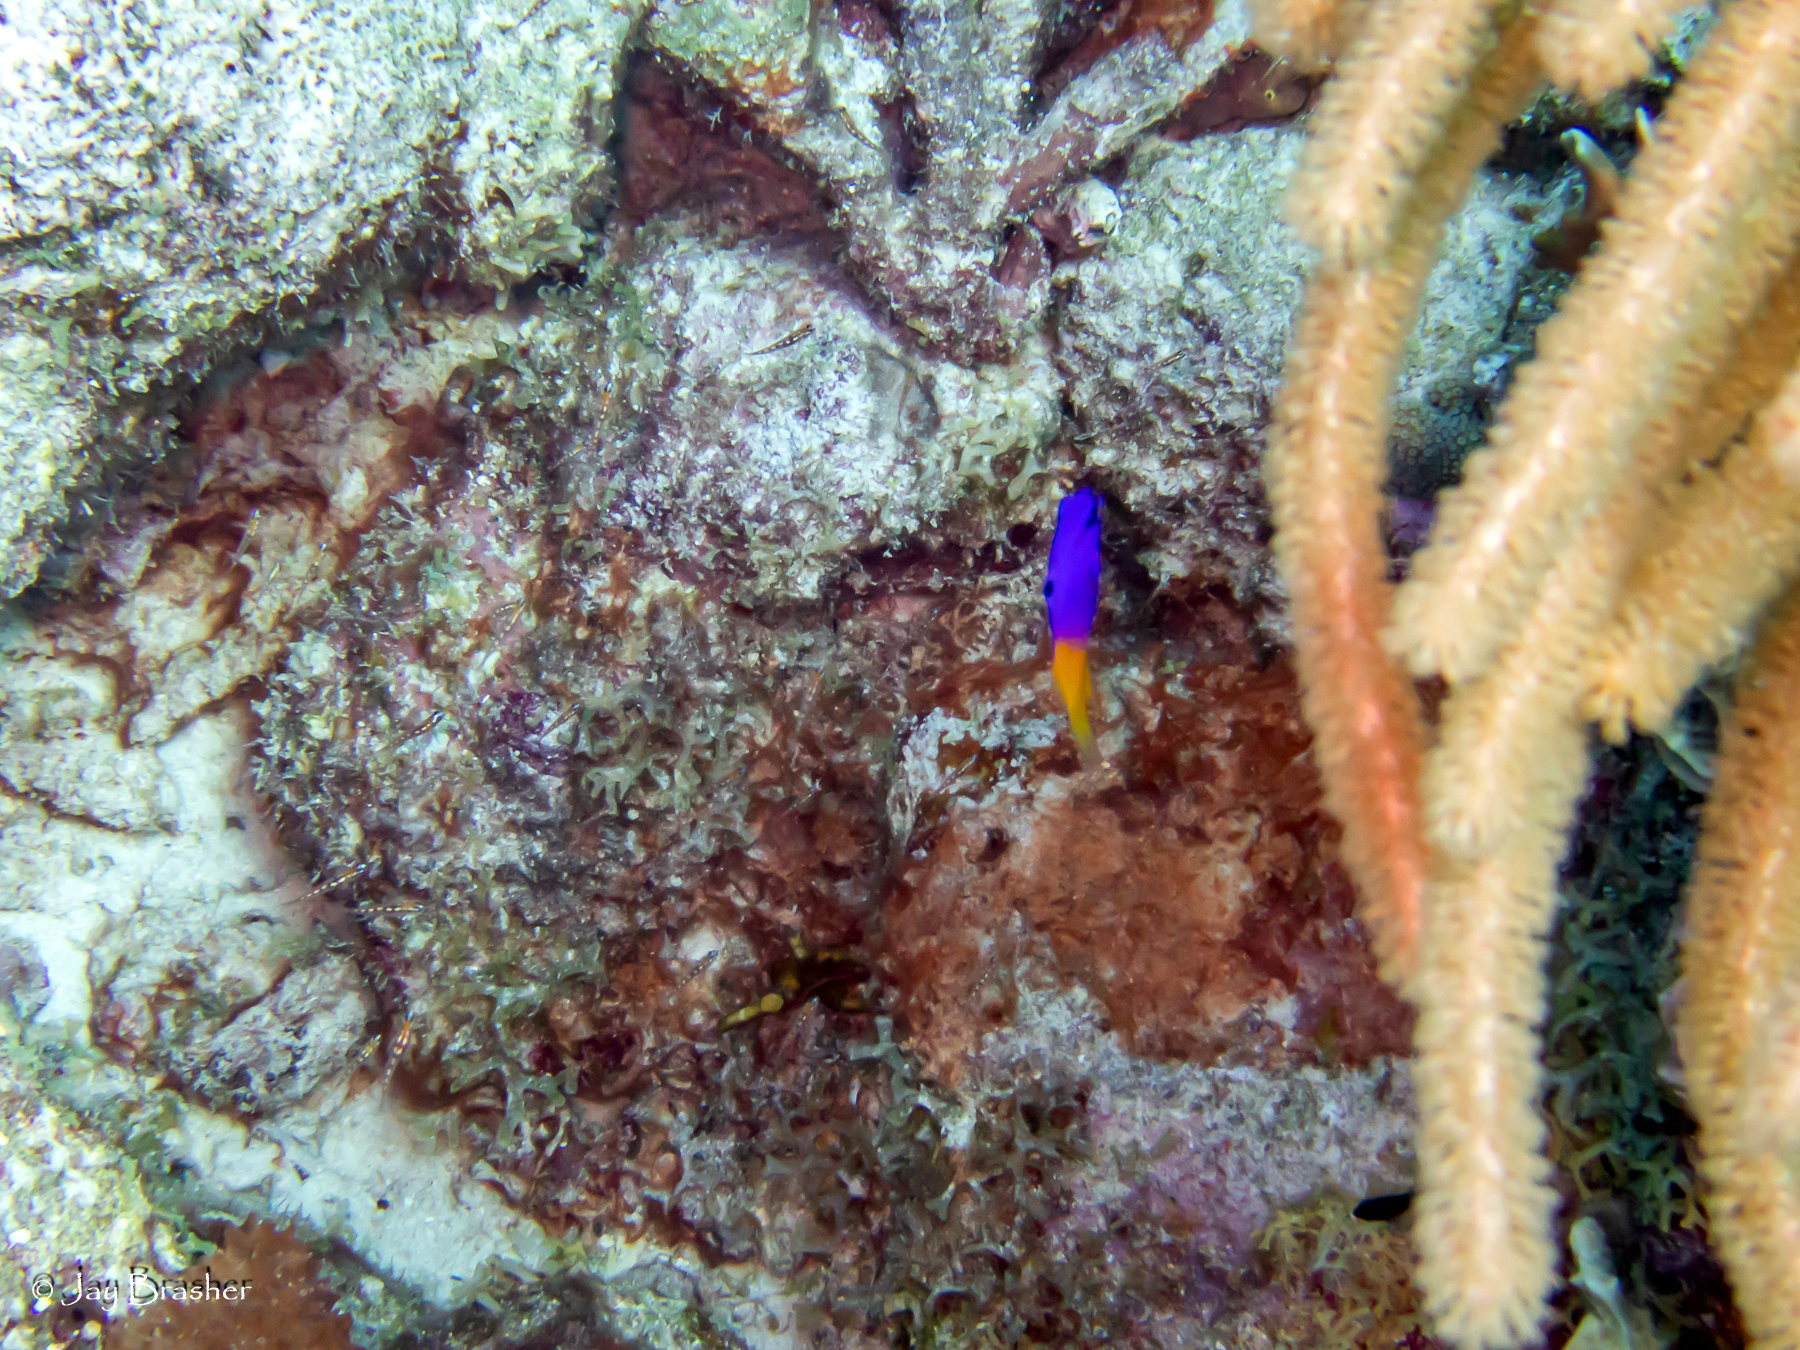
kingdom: Animalia
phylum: Chordata
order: Perciformes
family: Grammatidae
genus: Gramma
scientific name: Gramma loreto
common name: Fairy basslet
